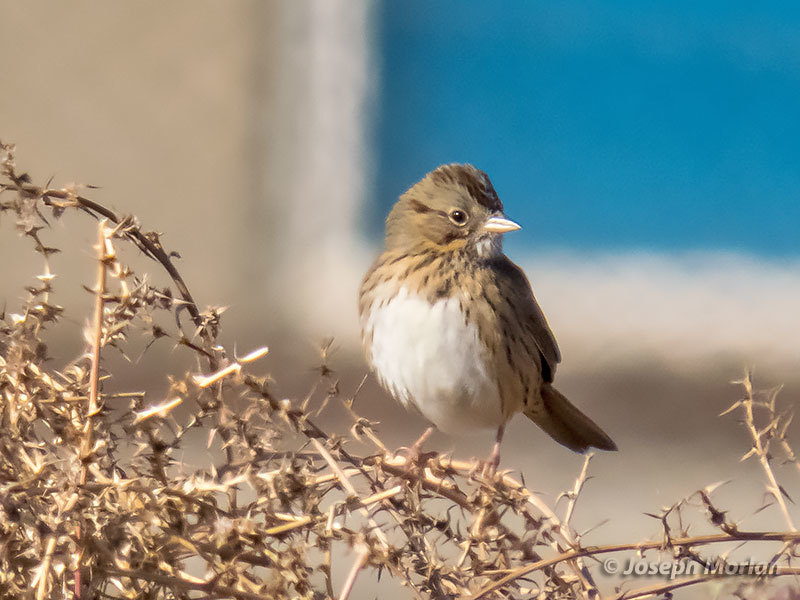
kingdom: Animalia
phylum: Chordata
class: Aves
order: Passeriformes
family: Passerellidae
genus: Melospiza
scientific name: Melospiza lincolnii
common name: Lincoln's sparrow
